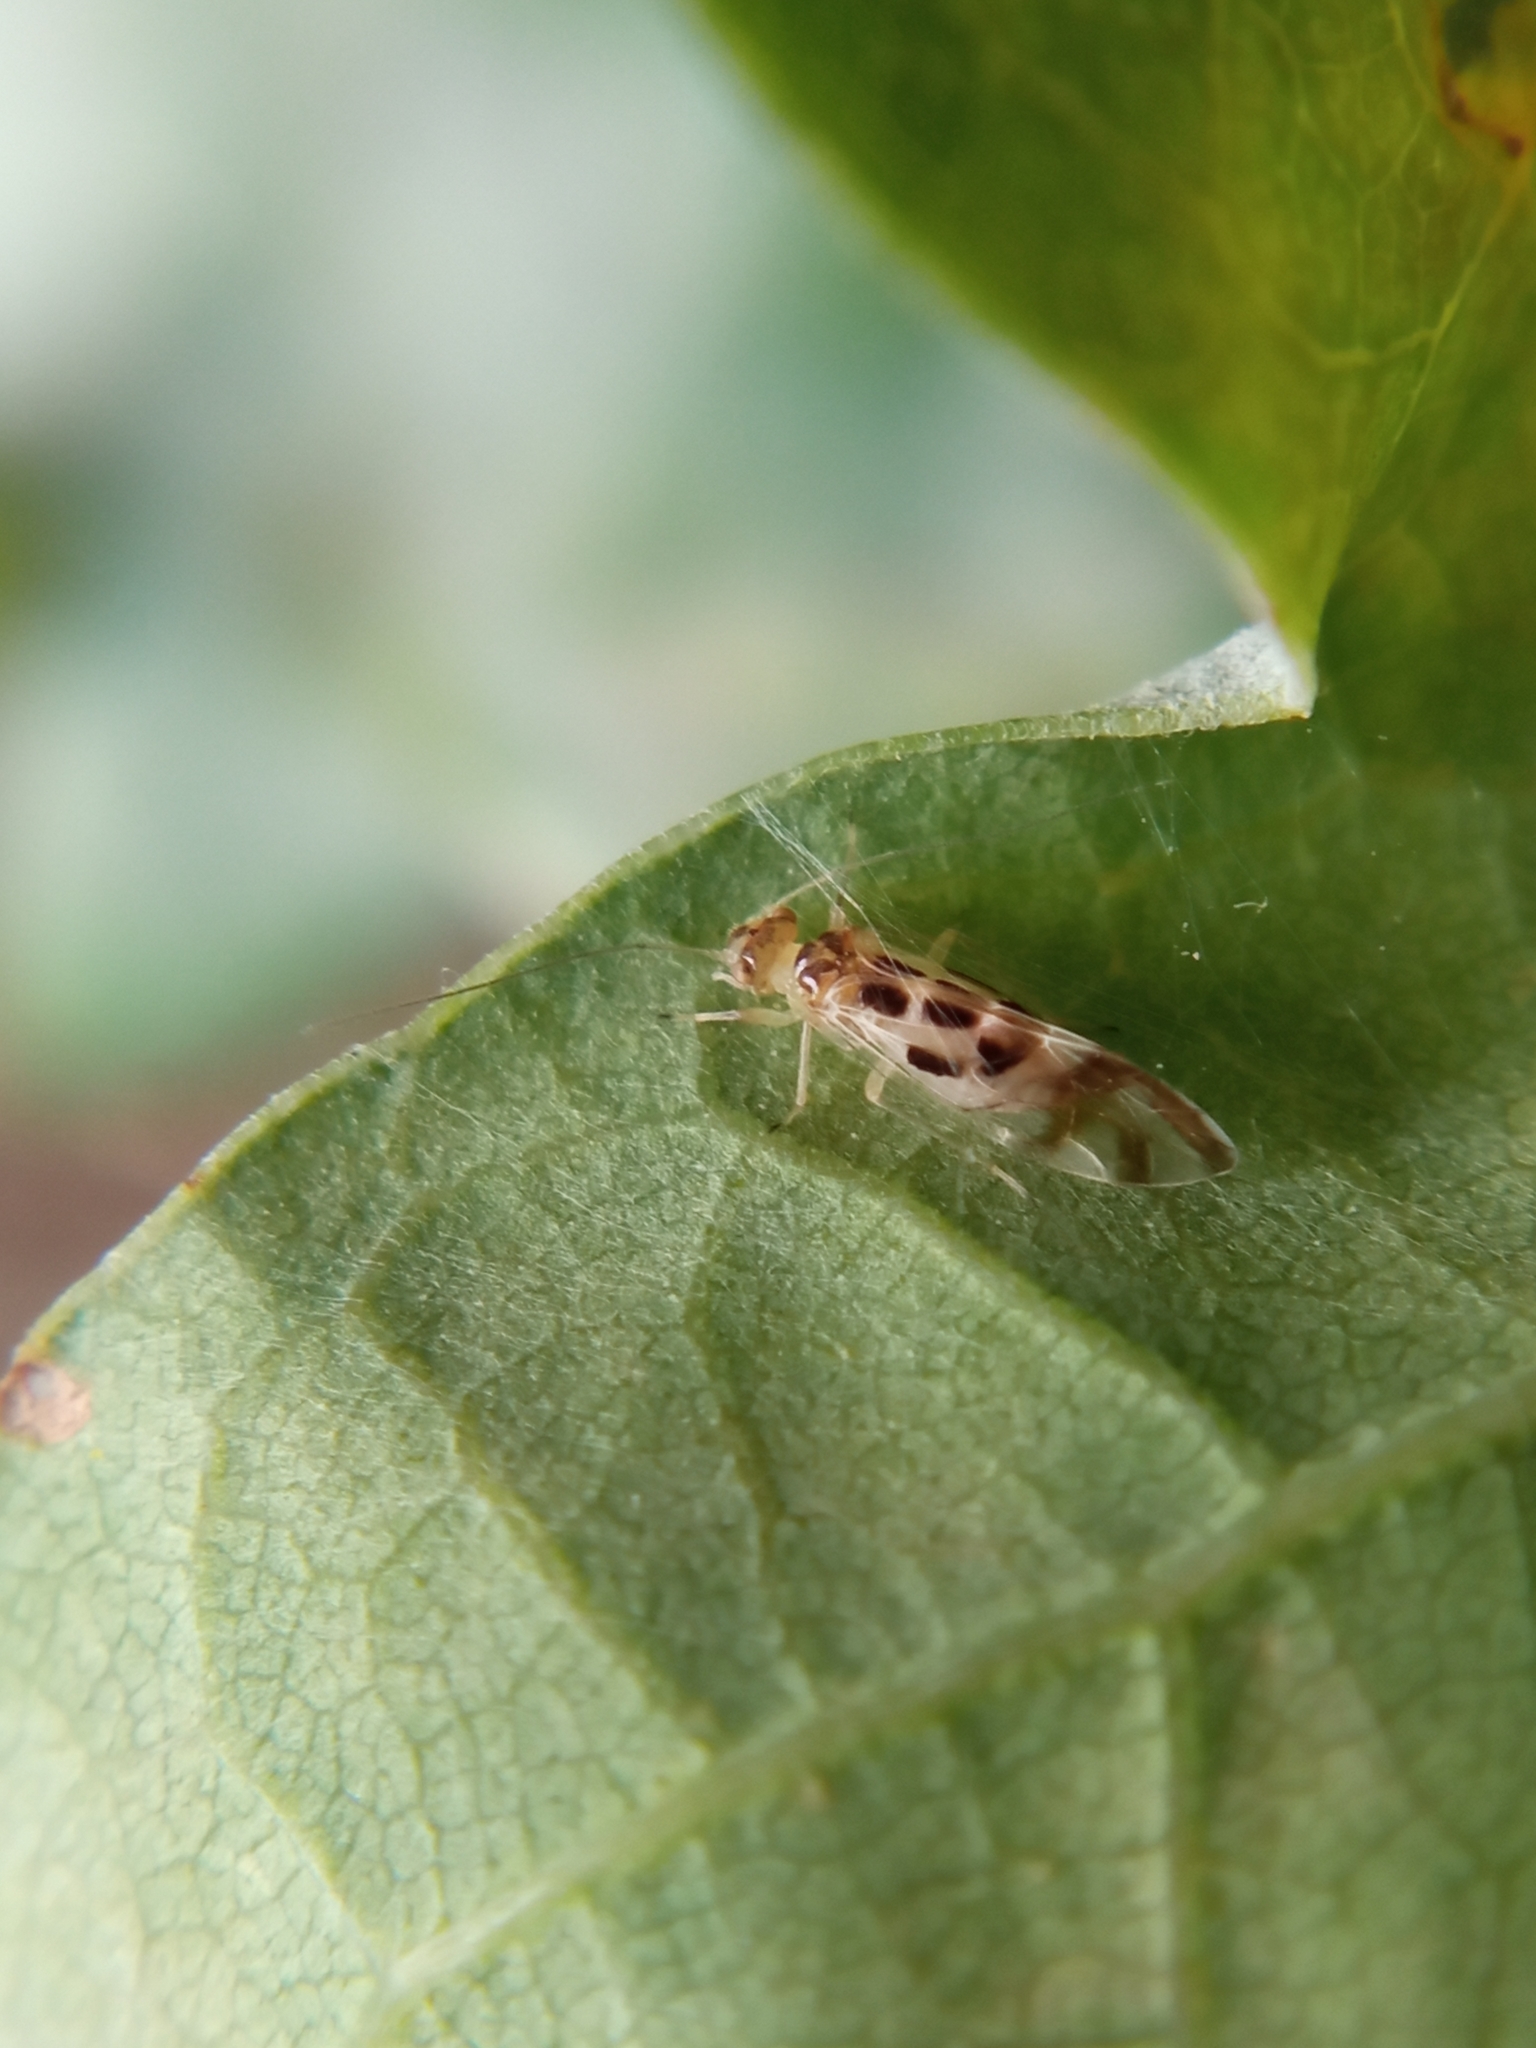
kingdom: Animalia
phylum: Arthropoda
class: Insecta
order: Psocodea
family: Stenopsocidae
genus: Graphopsocus
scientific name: Graphopsocus cruciatus
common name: Lizard bark louse
